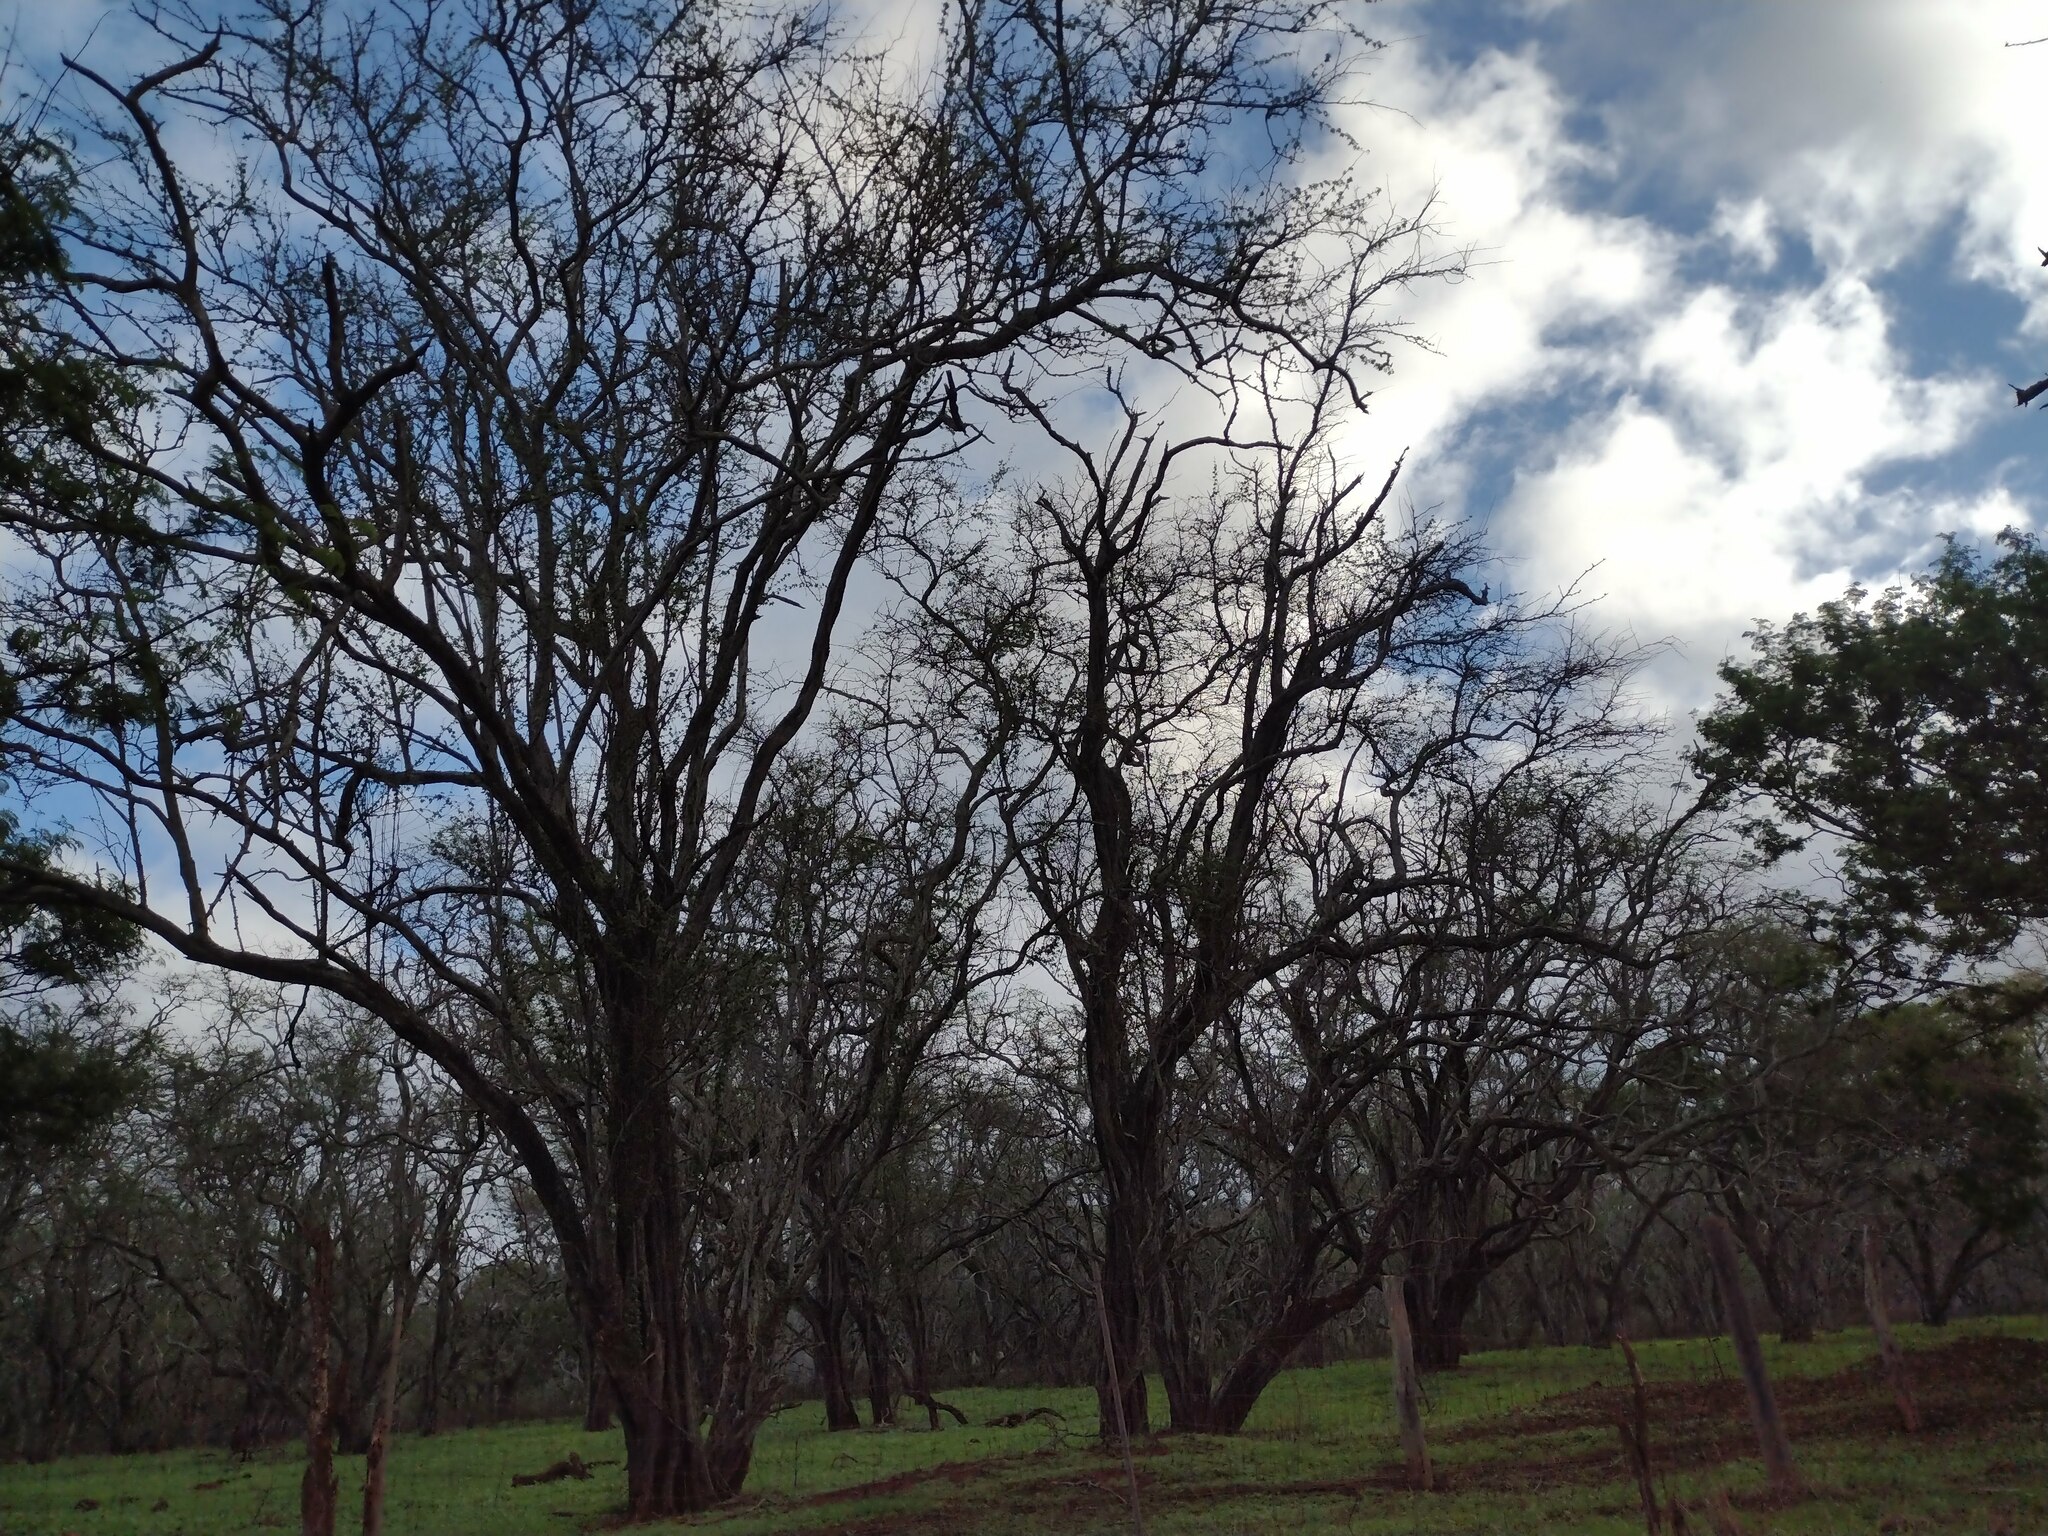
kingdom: Plantae
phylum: Tracheophyta
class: Magnoliopsida
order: Fabales
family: Fabaceae
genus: Prosopis
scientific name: Prosopis pallida
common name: Mesquite
